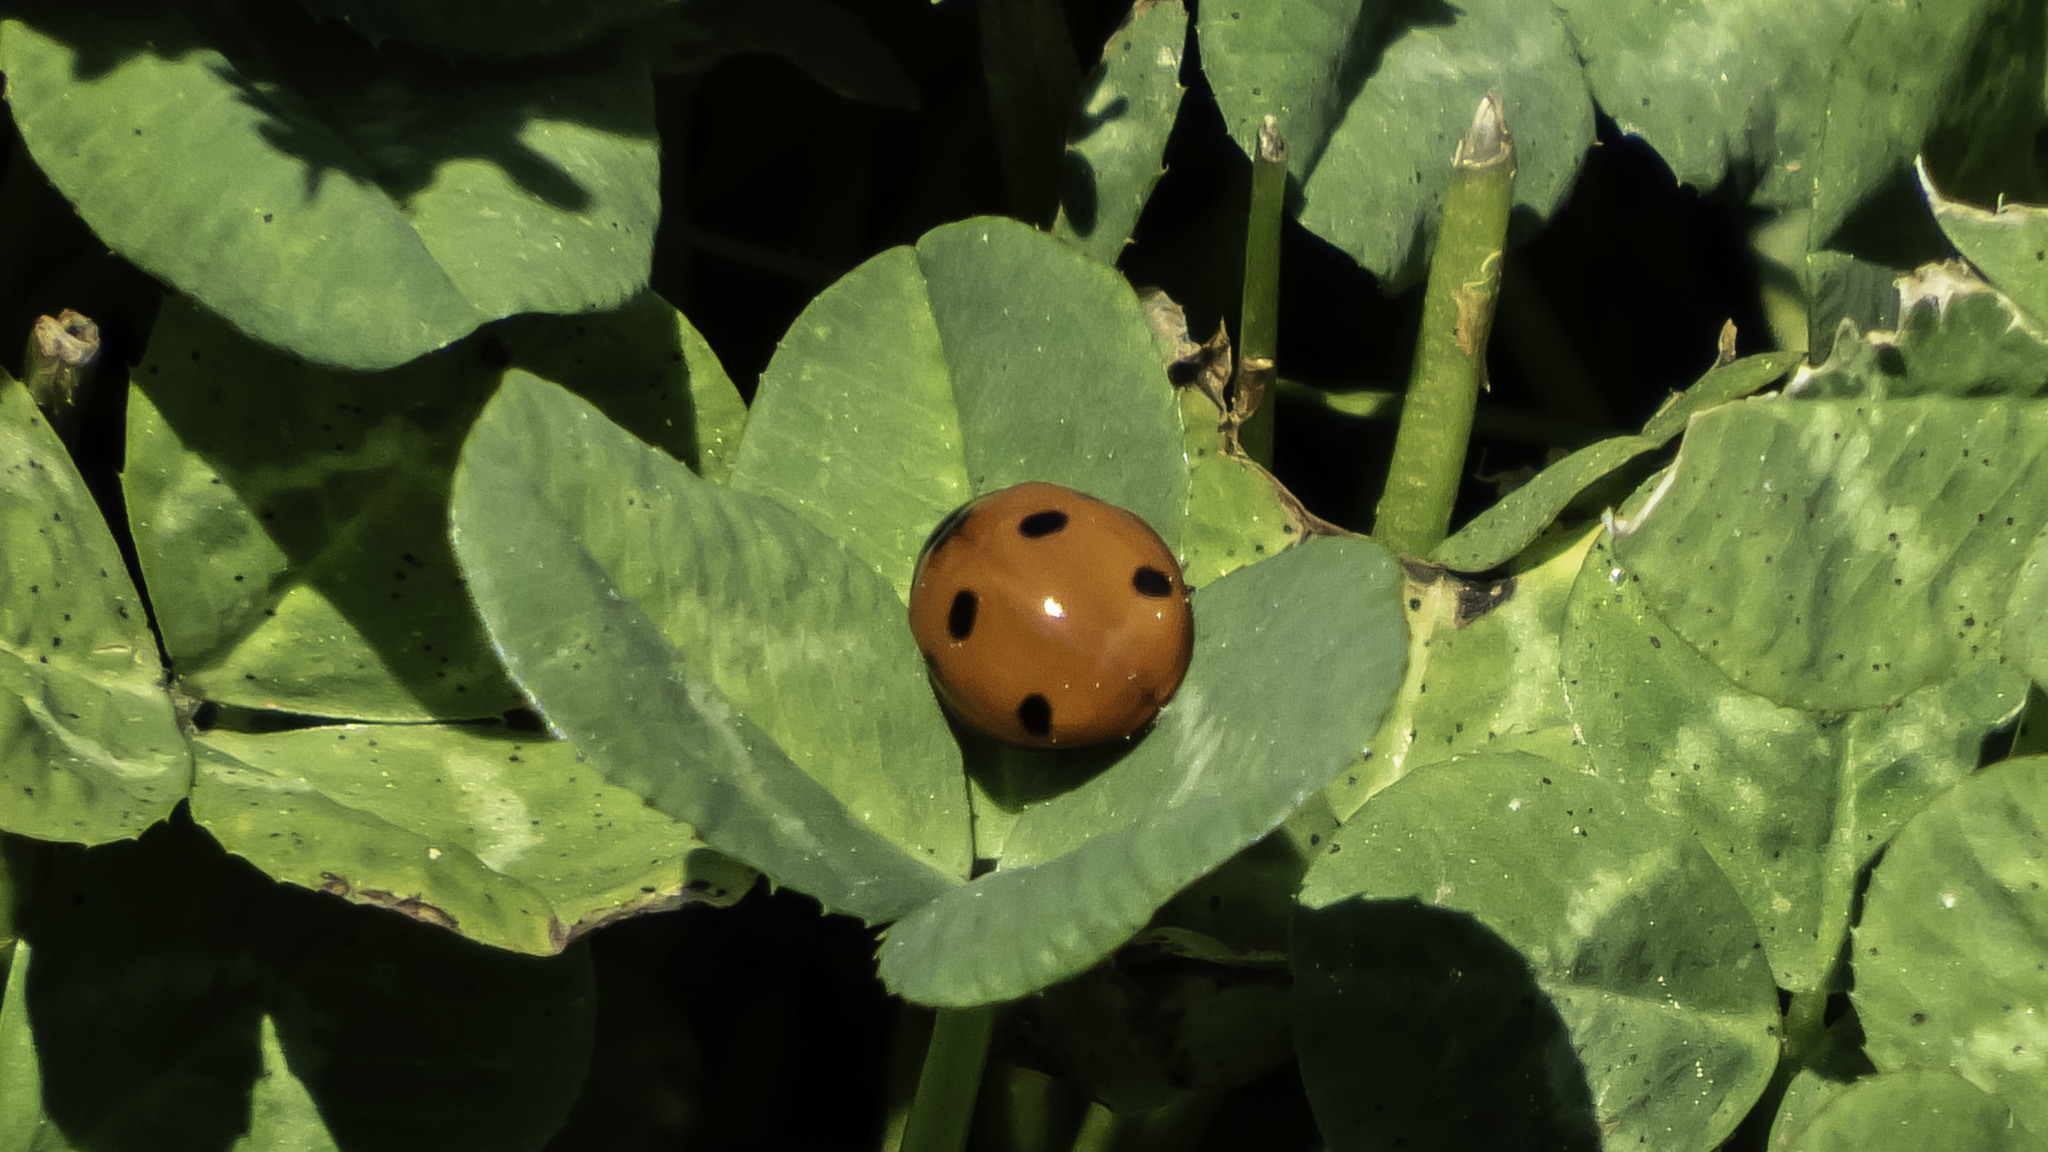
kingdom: Animalia
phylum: Arthropoda
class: Insecta
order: Coleoptera
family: Coccinellidae
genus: Coccinella
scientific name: Coccinella septempunctata
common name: Sevenspotted lady beetle
